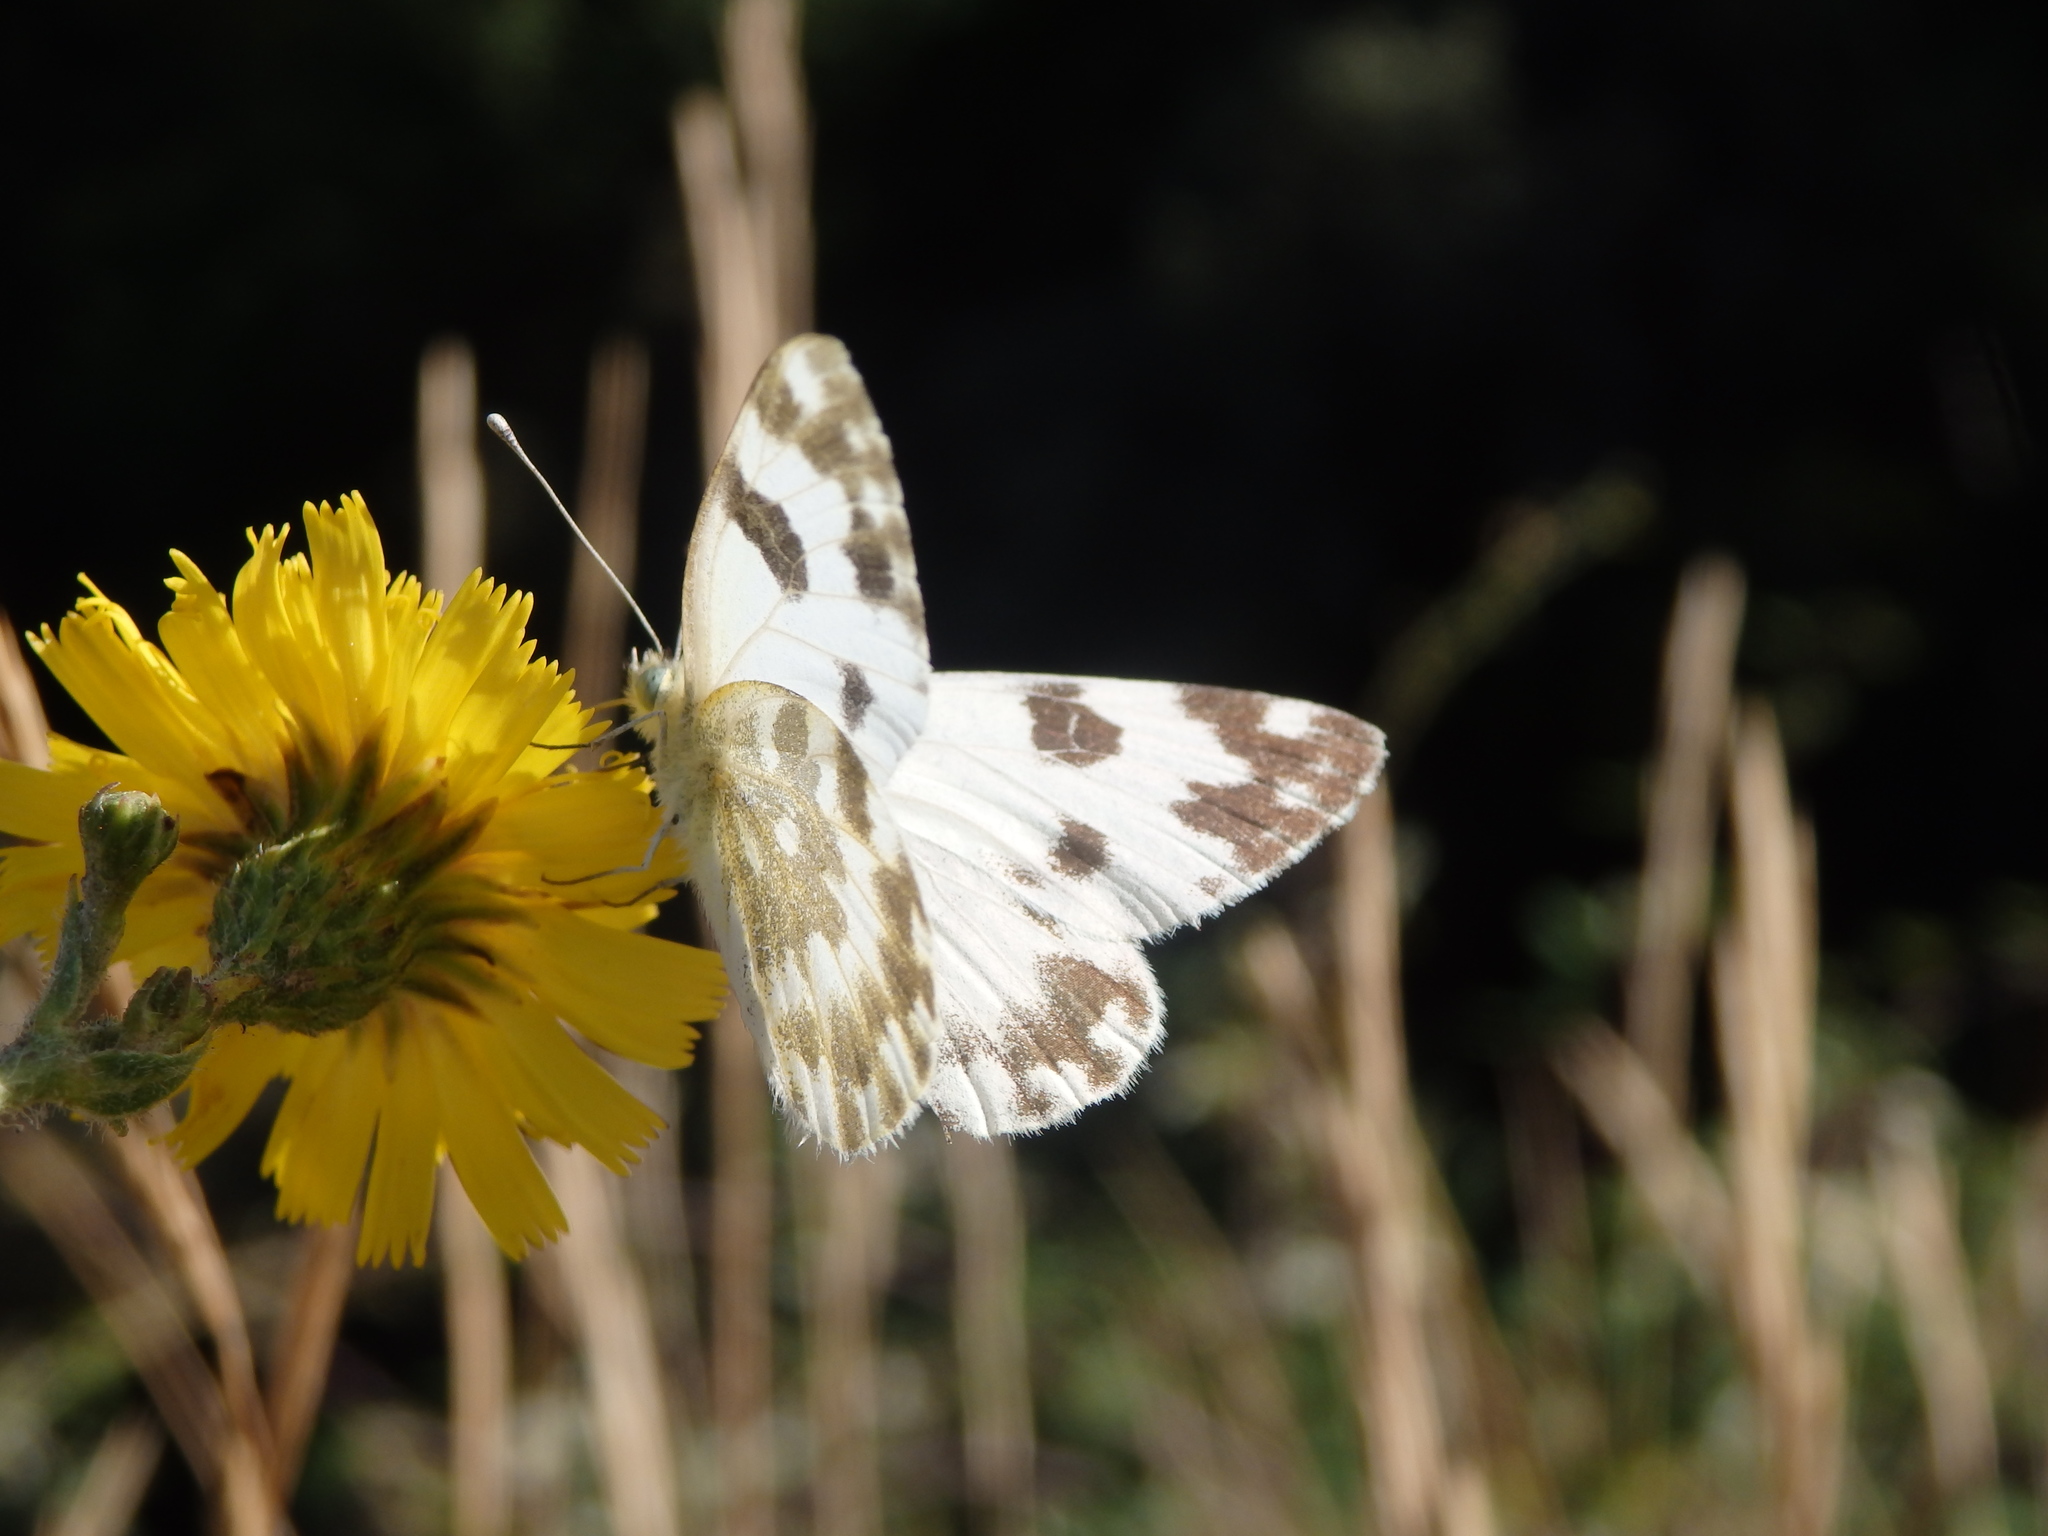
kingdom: Animalia
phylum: Arthropoda
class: Insecta
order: Lepidoptera
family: Pieridae
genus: Pontia
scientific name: Pontia daplidice
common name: Bath white
